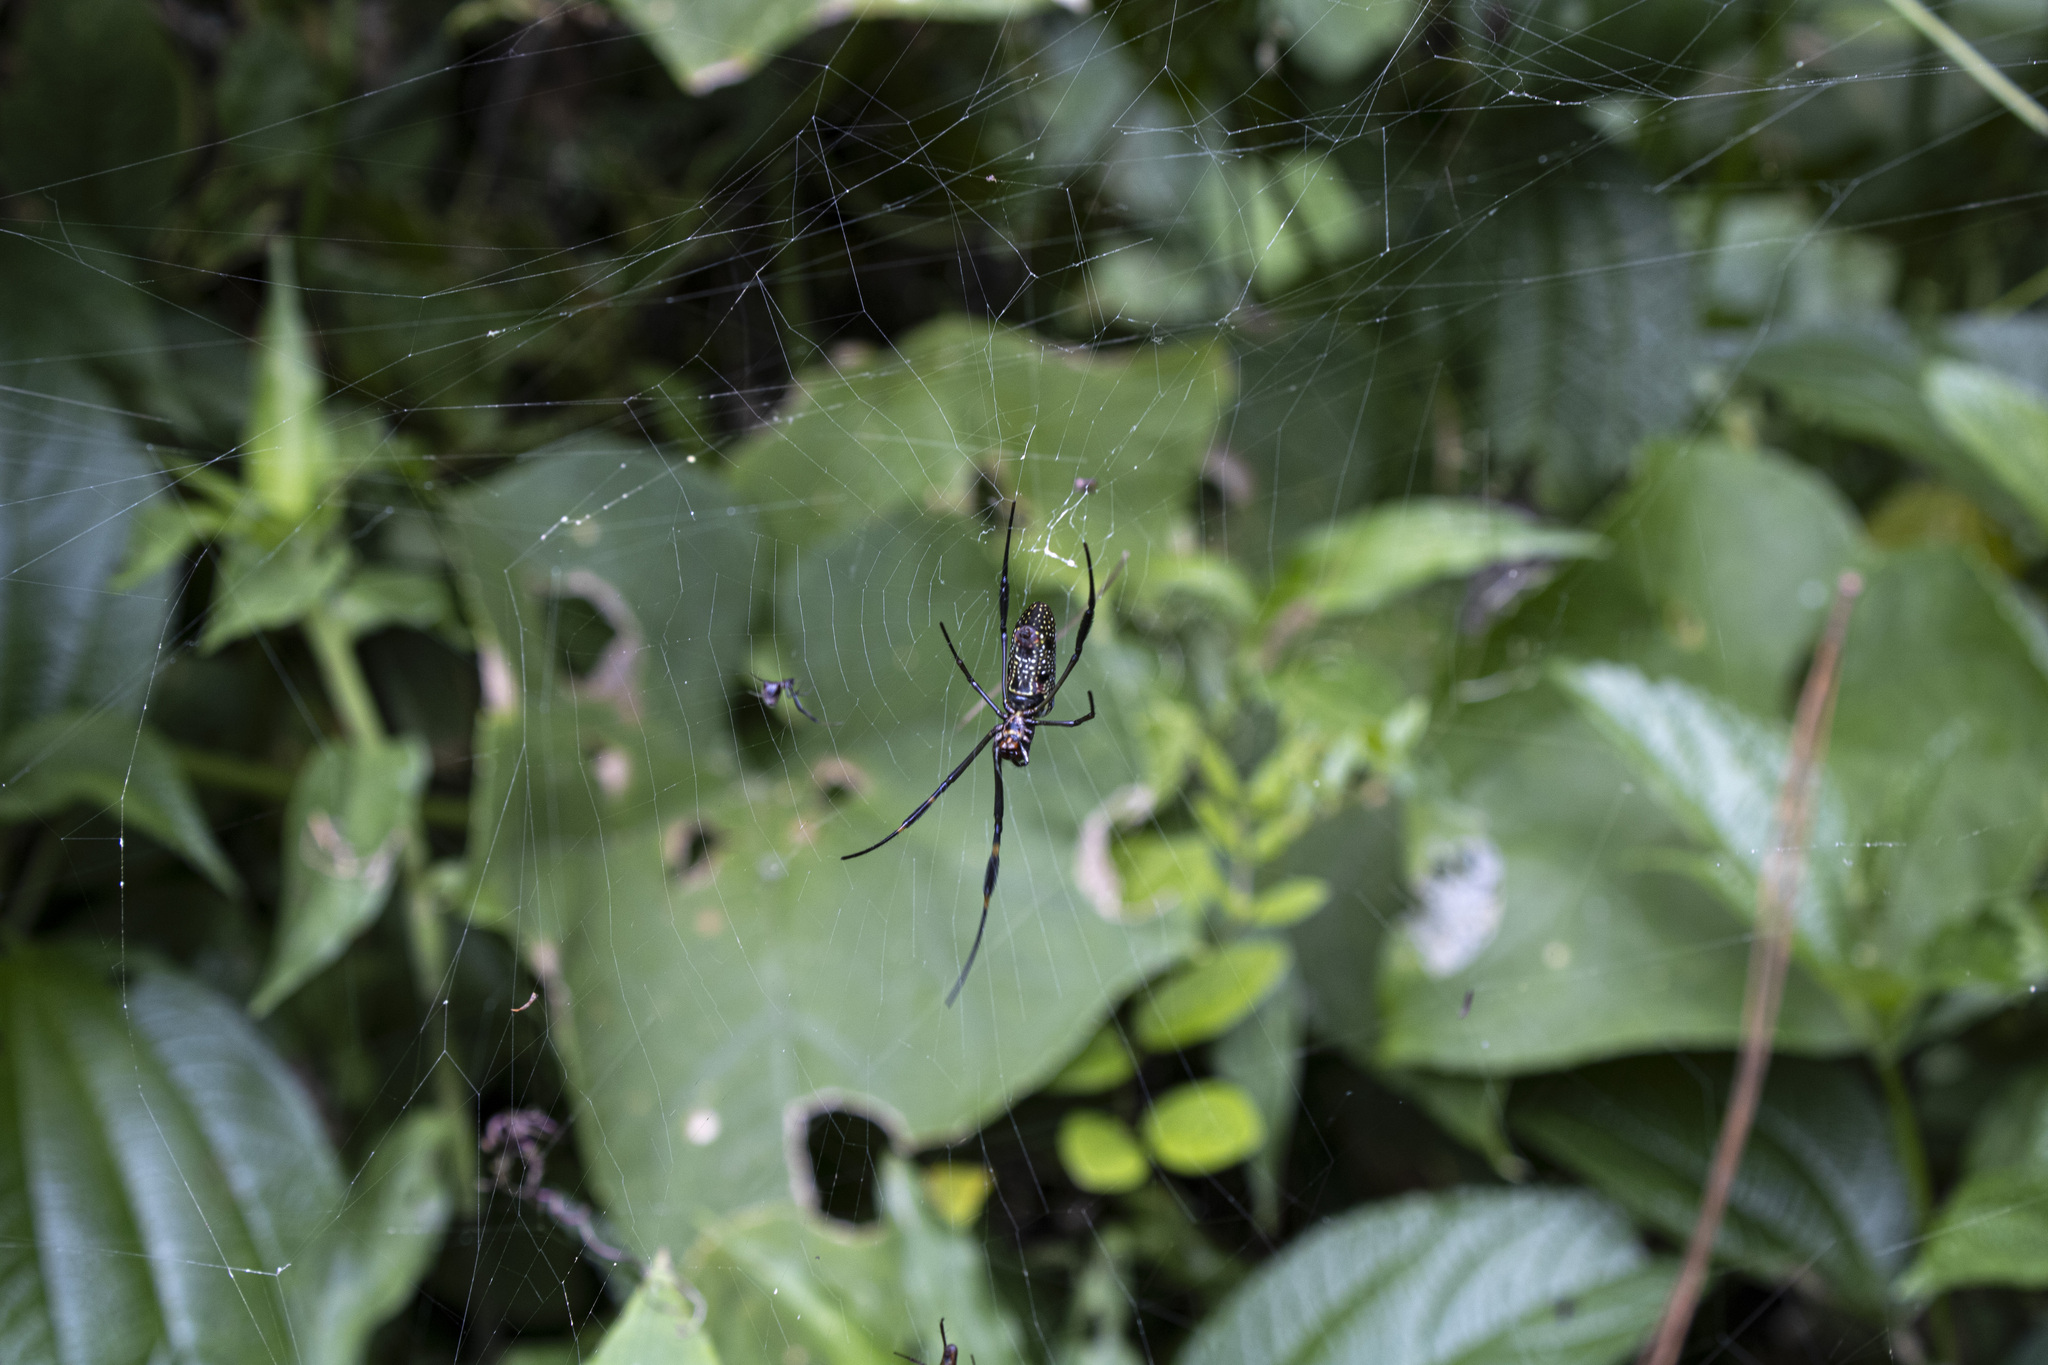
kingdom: Animalia
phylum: Arthropoda
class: Arachnida
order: Araneae
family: Araneidae
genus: Trichonephila
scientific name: Trichonephila clavipes
